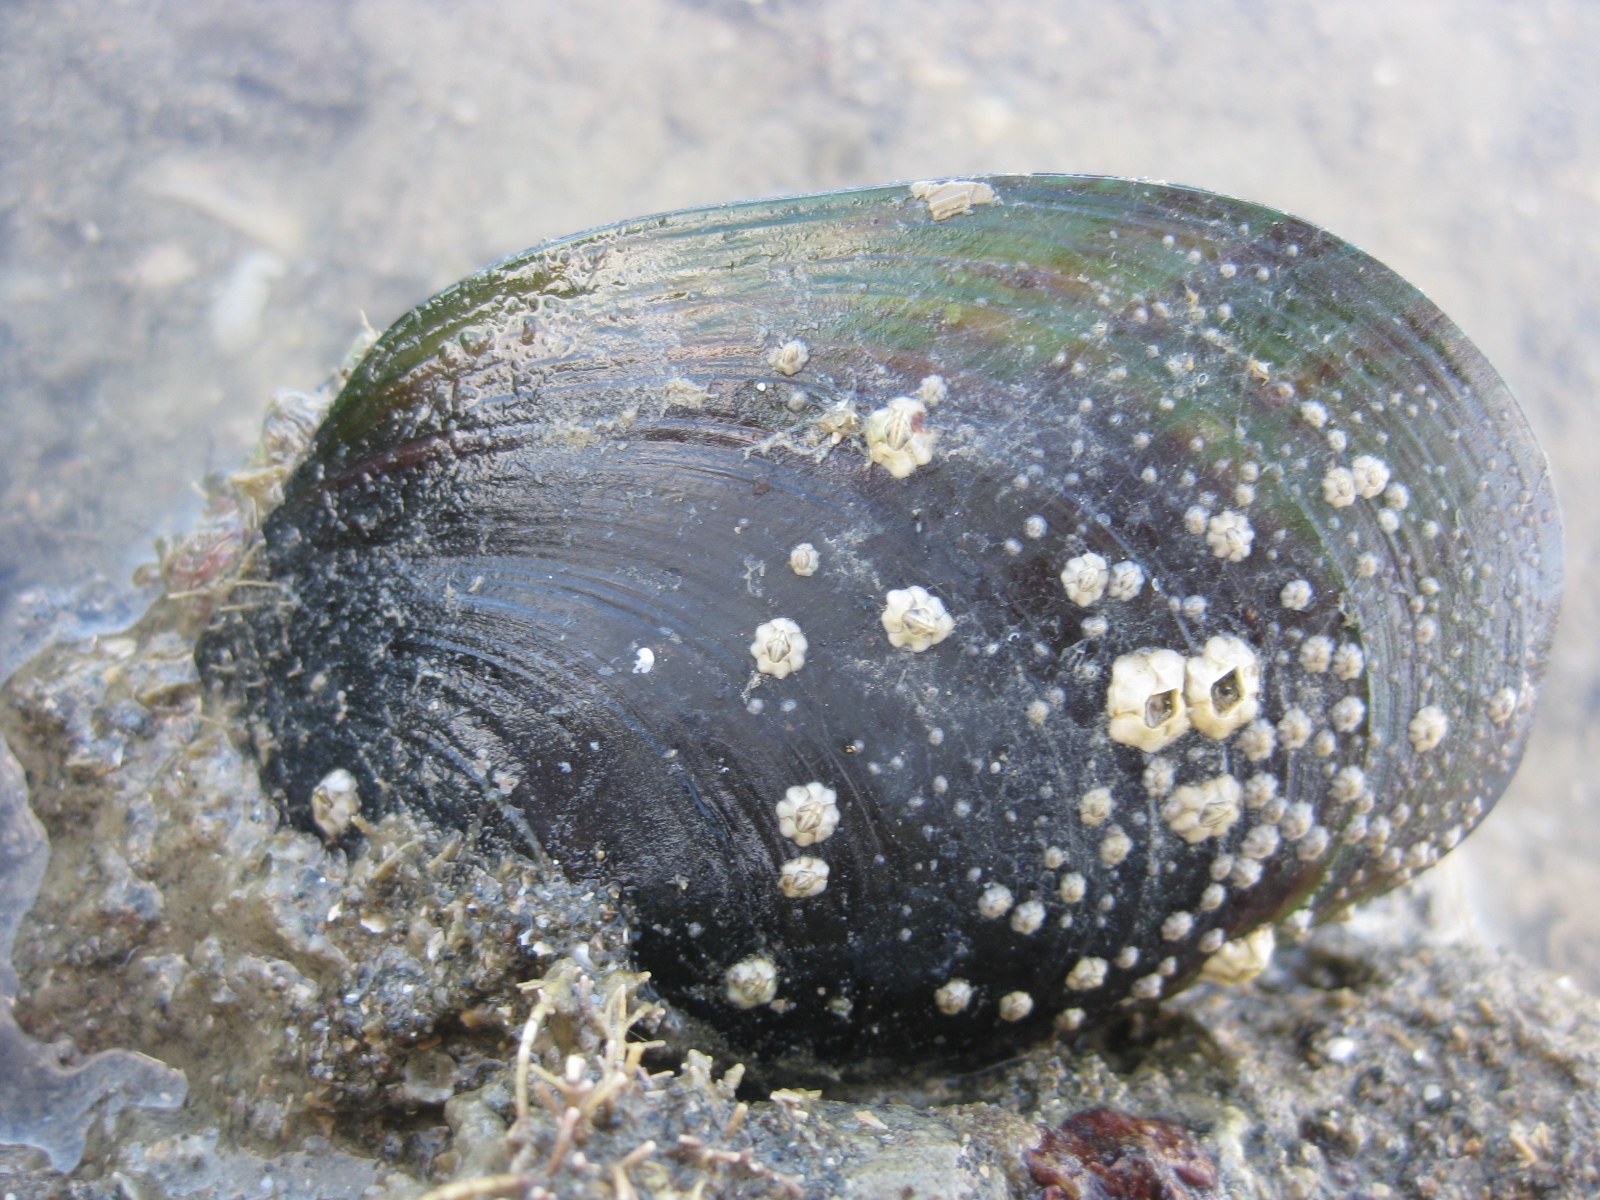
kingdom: Animalia
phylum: Mollusca
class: Bivalvia
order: Mytilida
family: Mytilidae
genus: Perna
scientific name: Perna canaliculus
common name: New zealand greenshelltm
